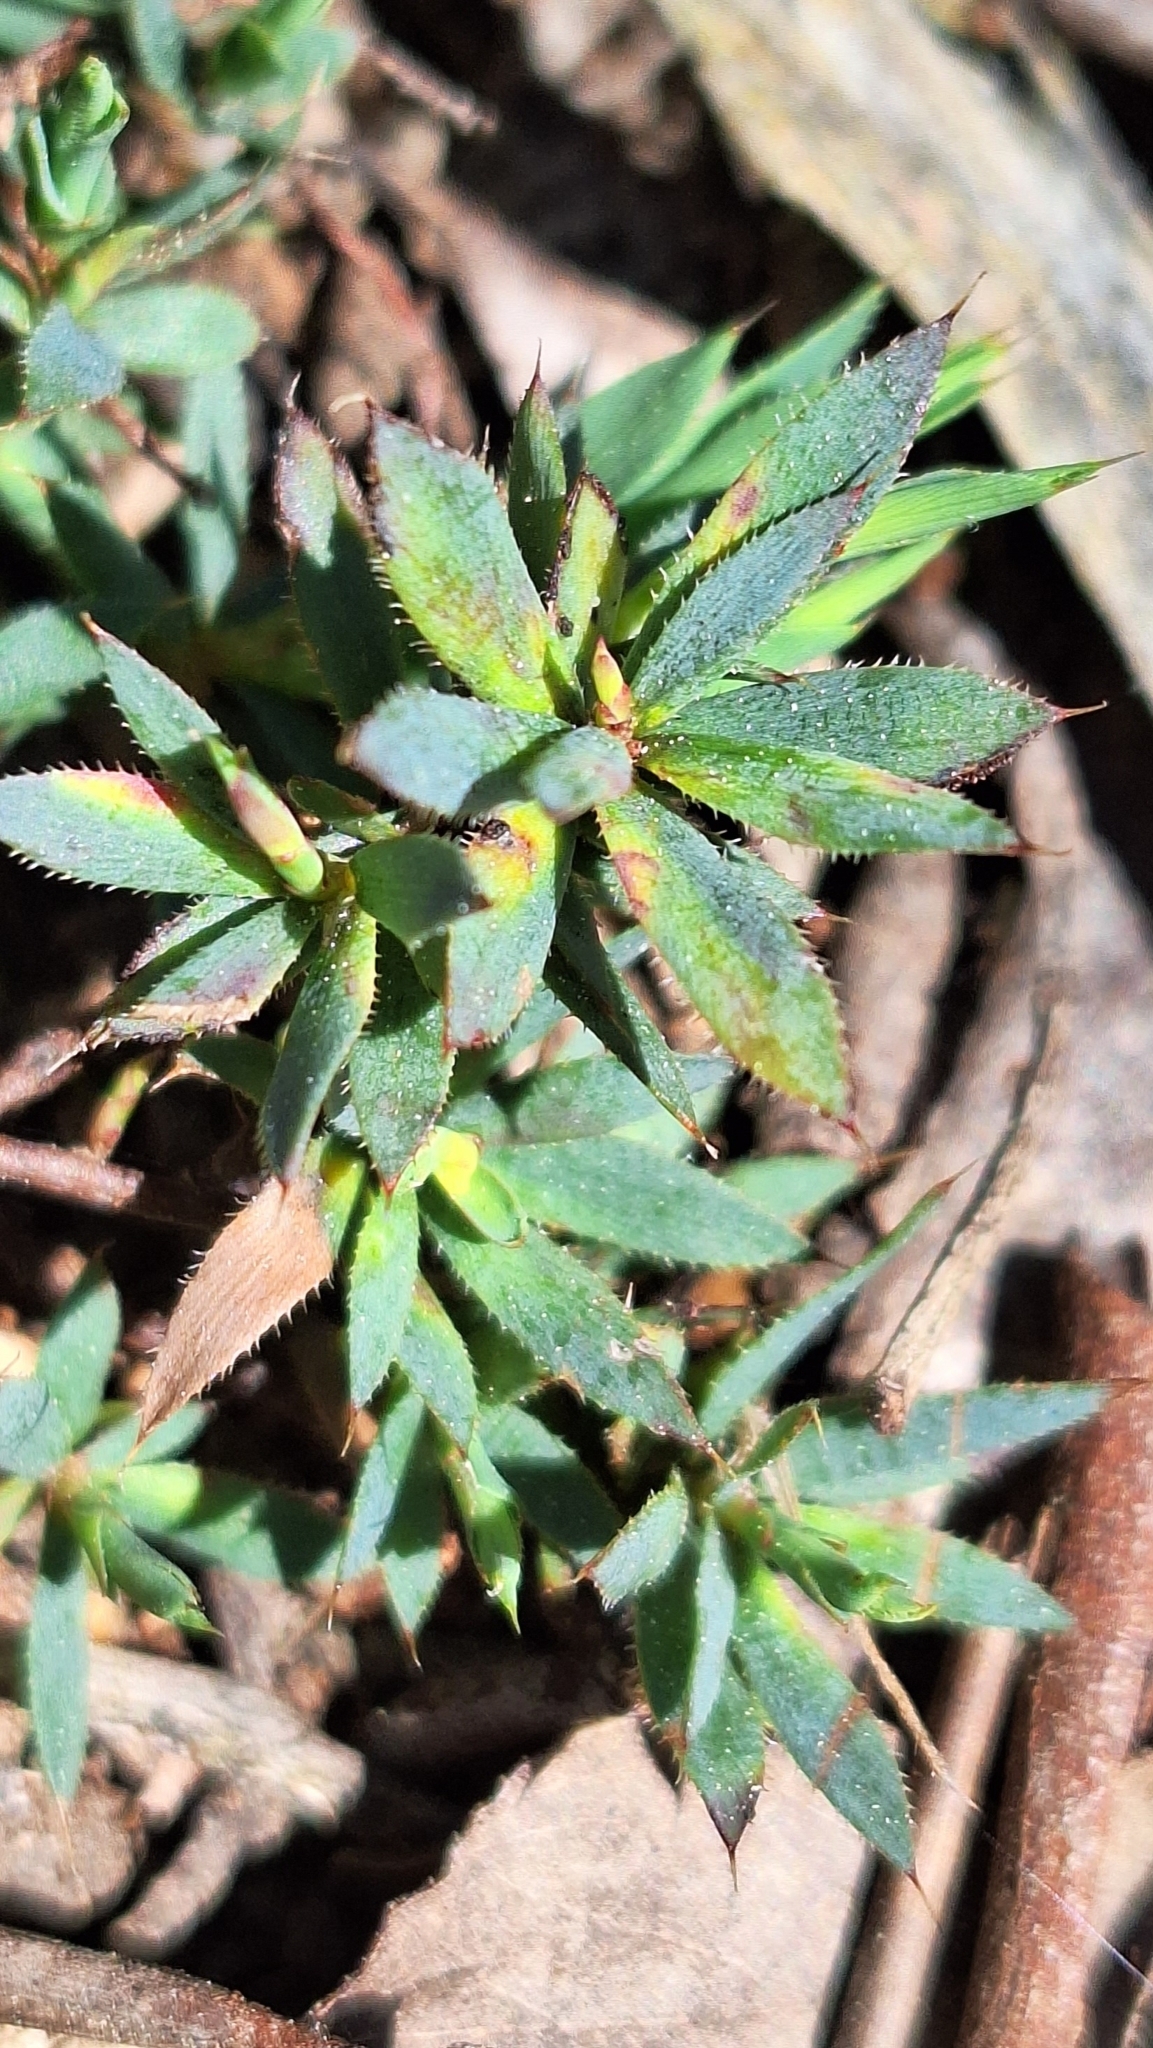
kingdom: Plantae
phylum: Tracheophyta
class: Magnoliopsida
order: Ericales
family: Ericaceae
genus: Styphelia
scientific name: Styphelia humifusa
